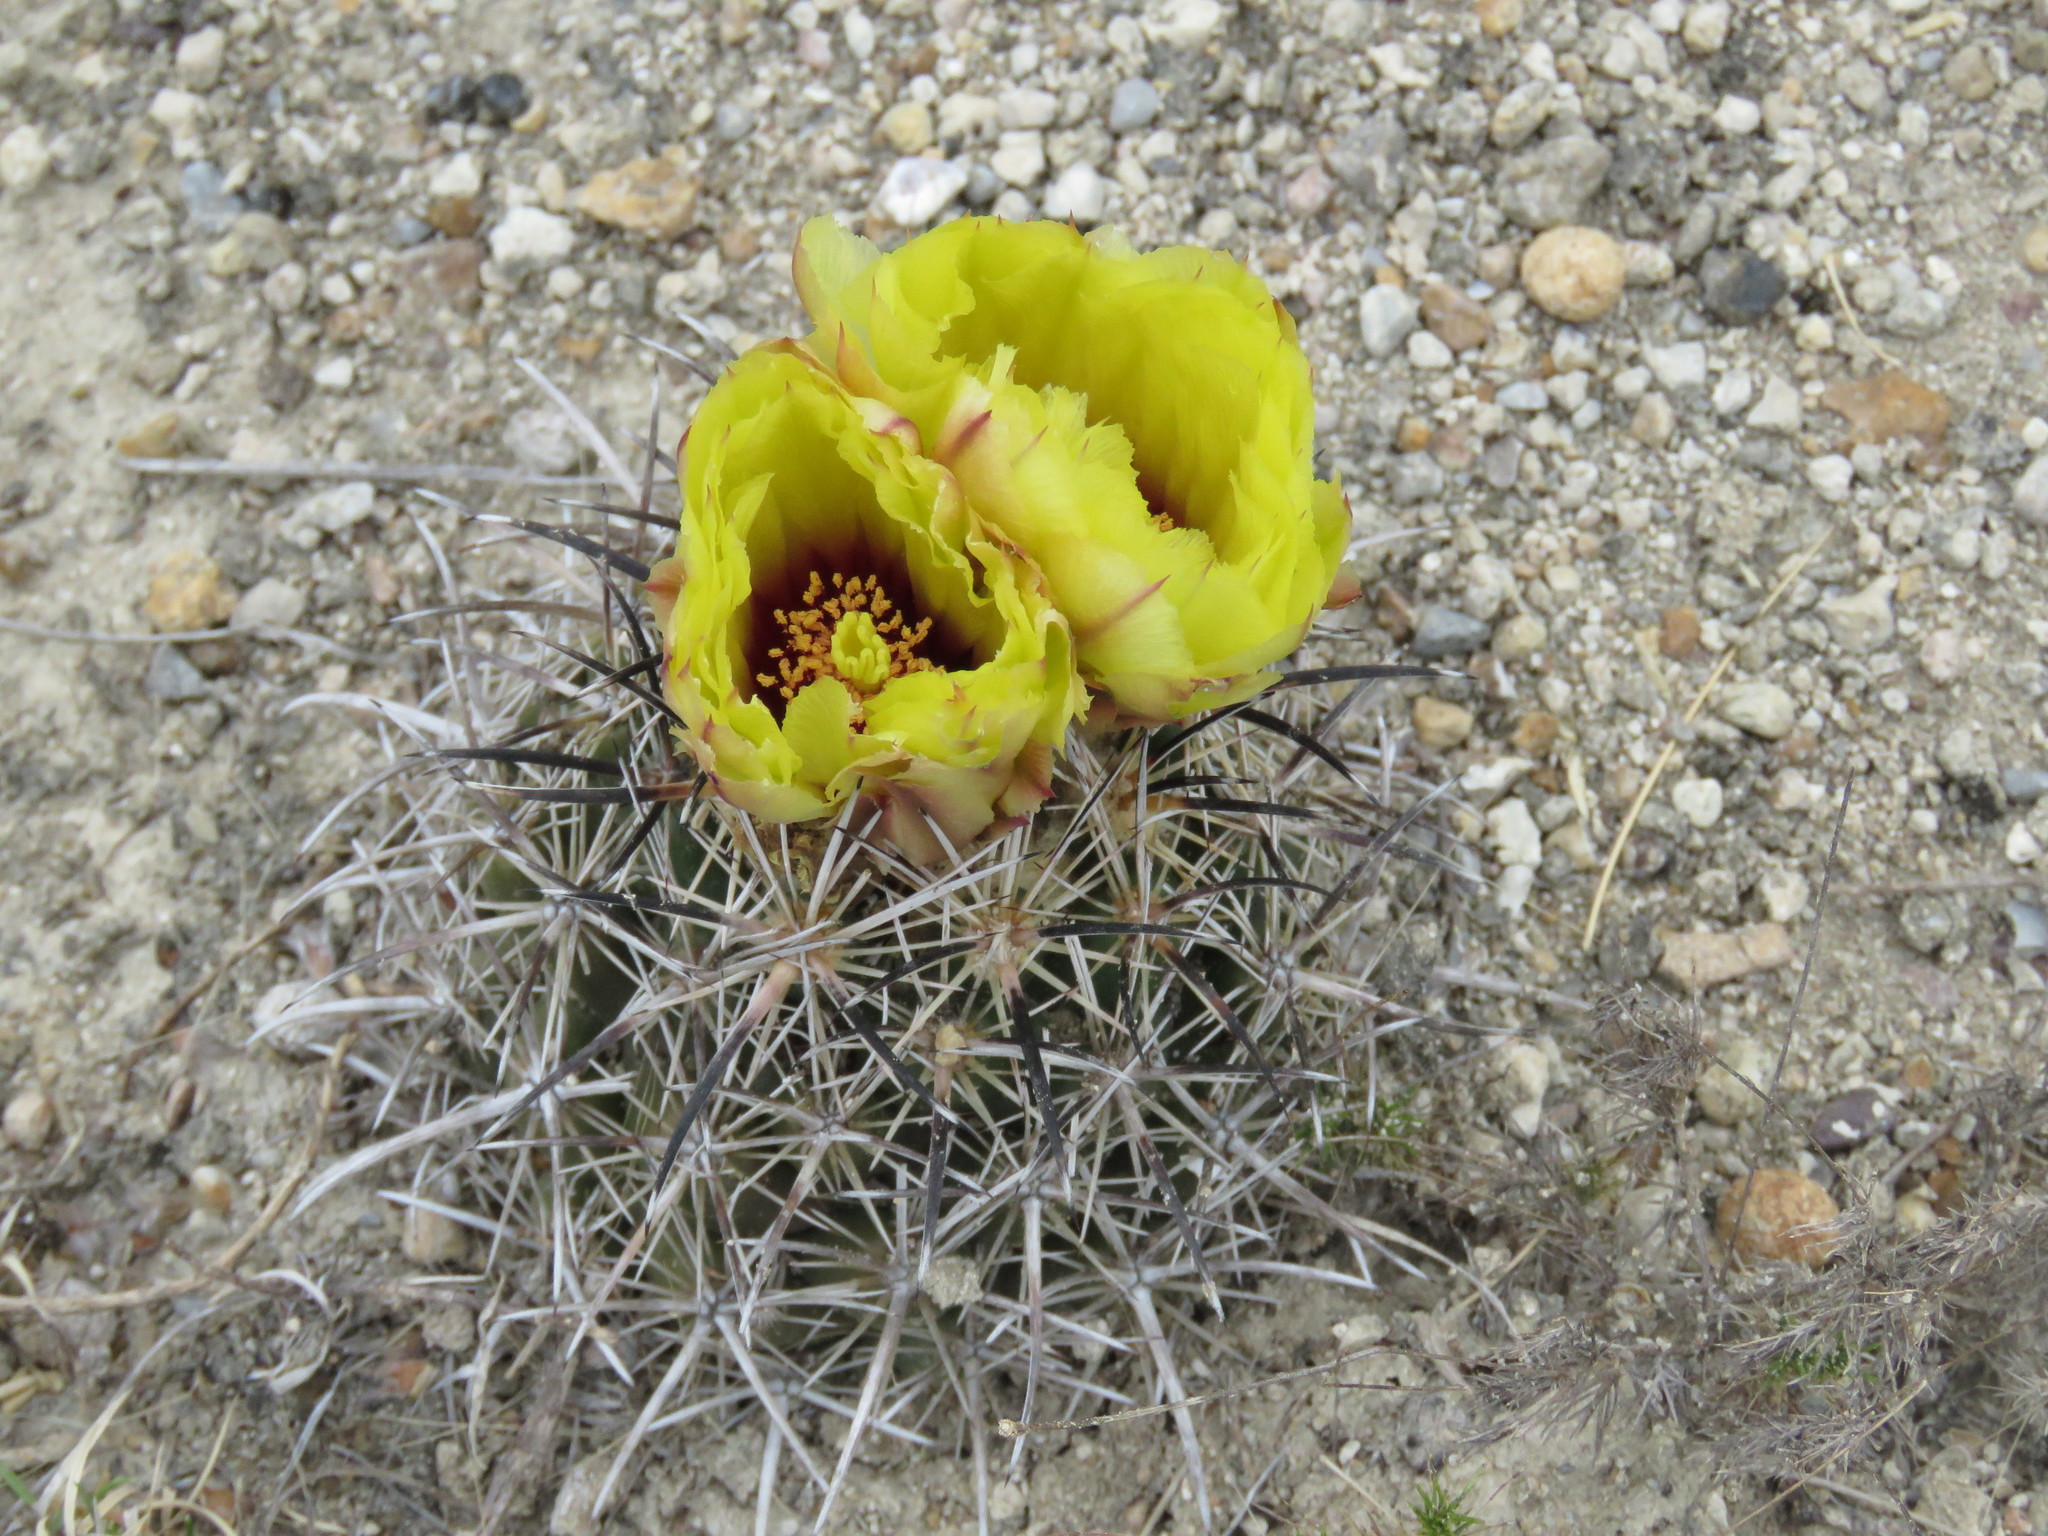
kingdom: Plantae
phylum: Tracheophyta
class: Magnoliopsida
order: Caryophyllales
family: Cactaceae
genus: Coryphantha
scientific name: Coryphantha salinensis
